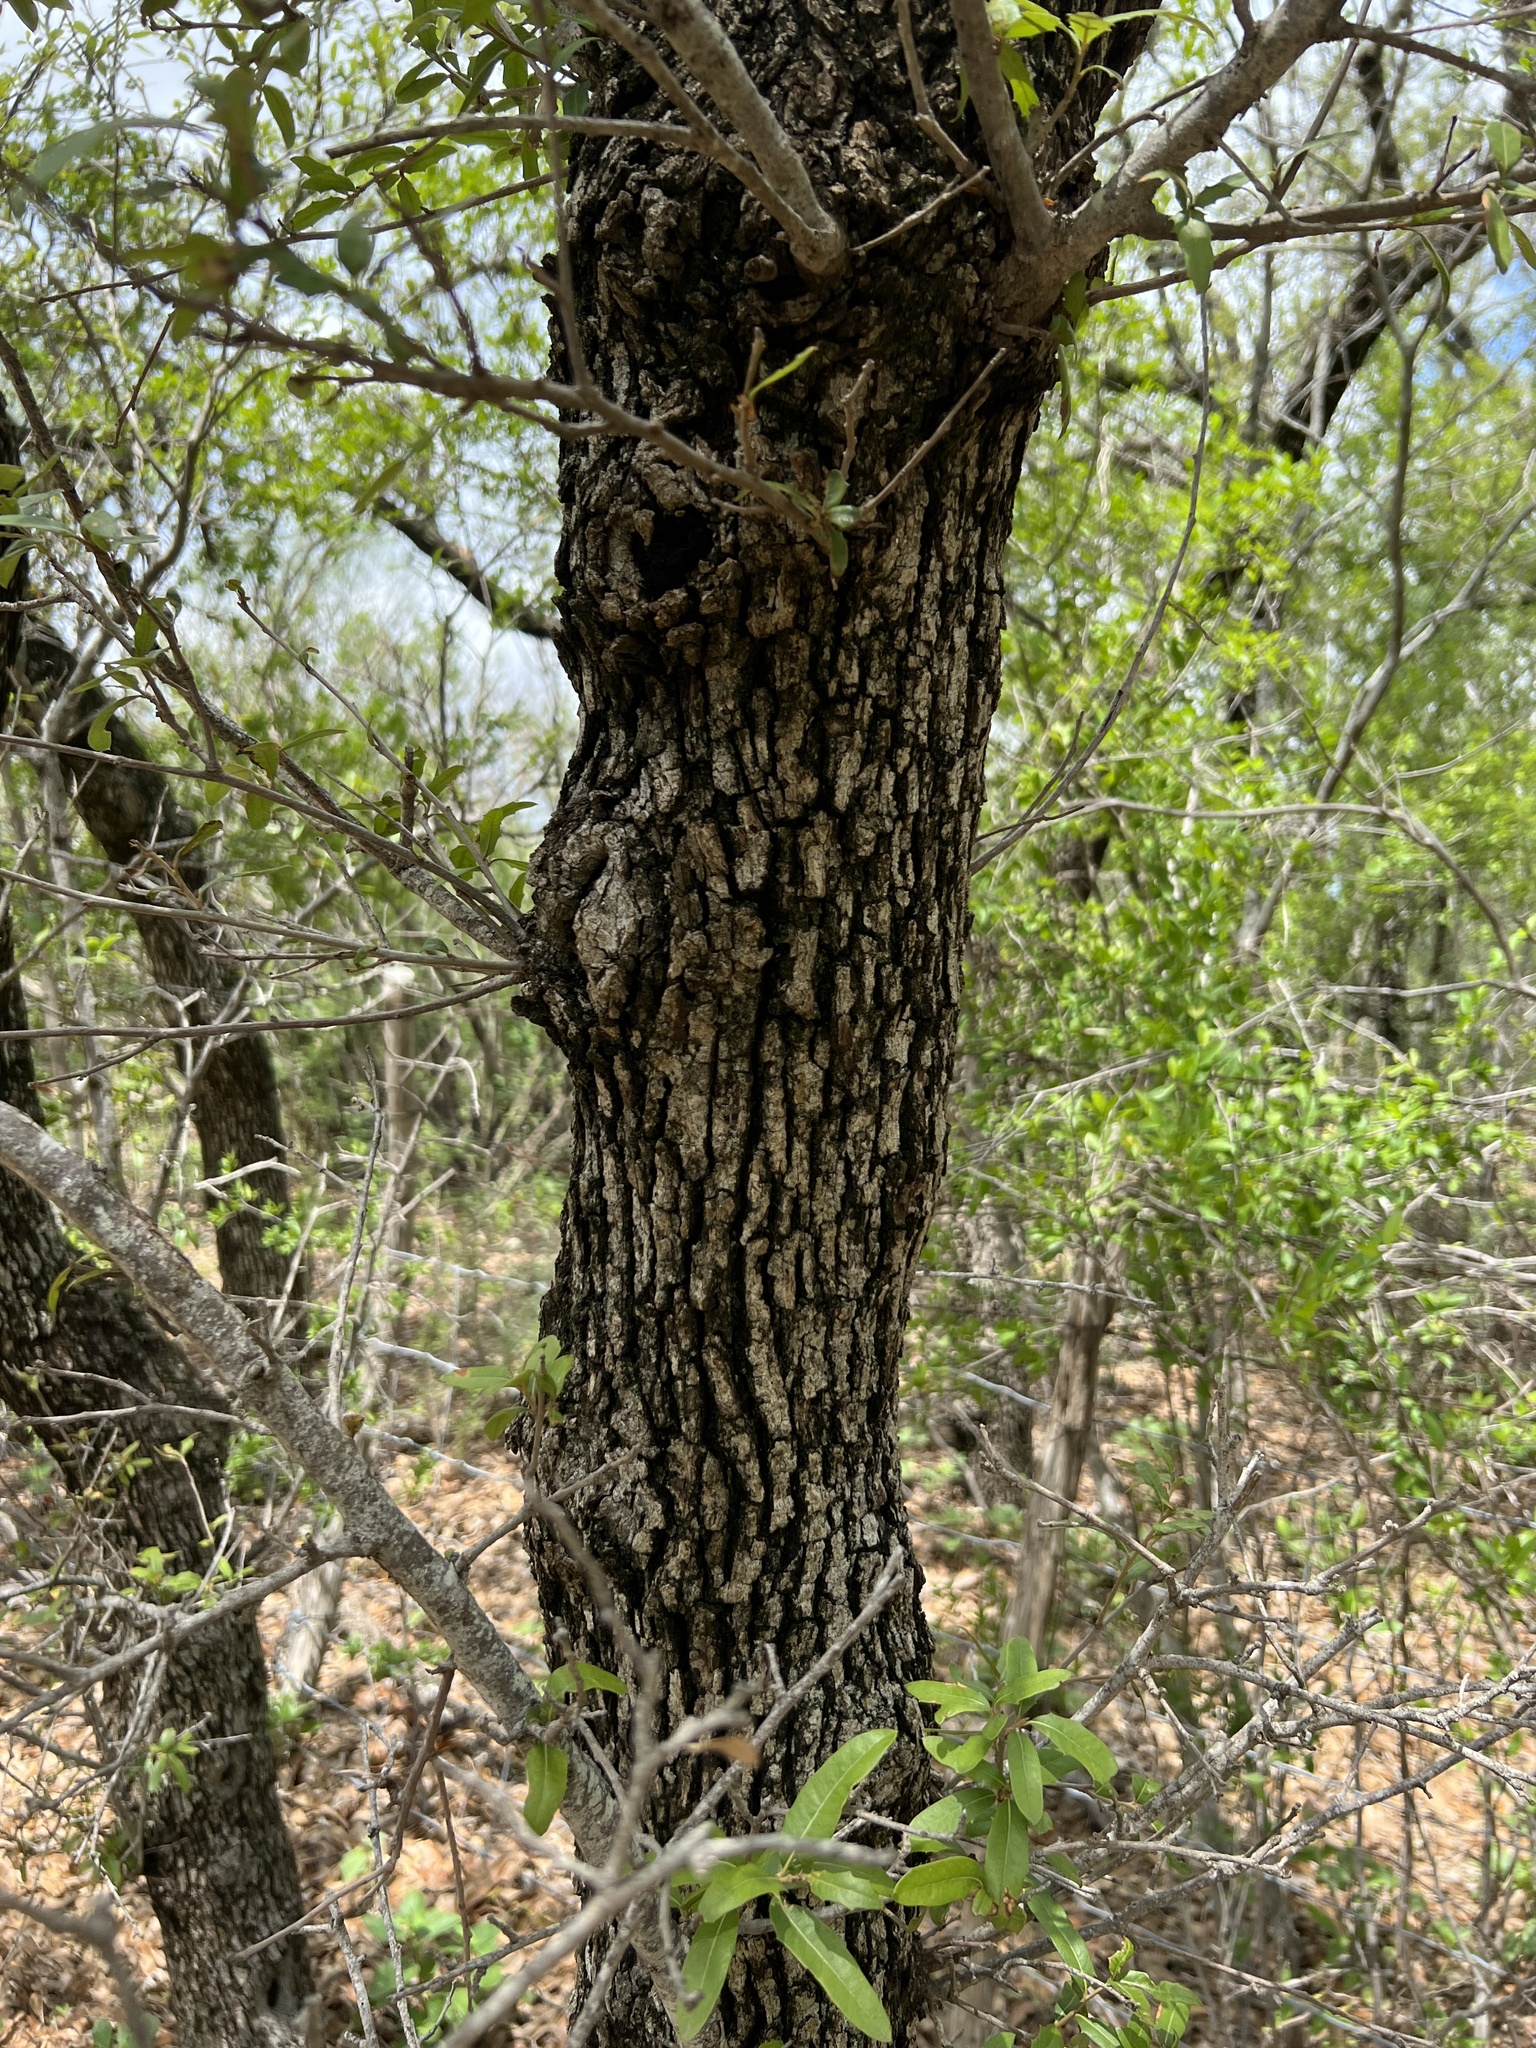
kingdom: Plantae
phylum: Tracheophyta
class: Magnoliopsida
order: Fagales
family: Fagaceae
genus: Quercus
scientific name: Quercus fusiformis
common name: Texas live oak
